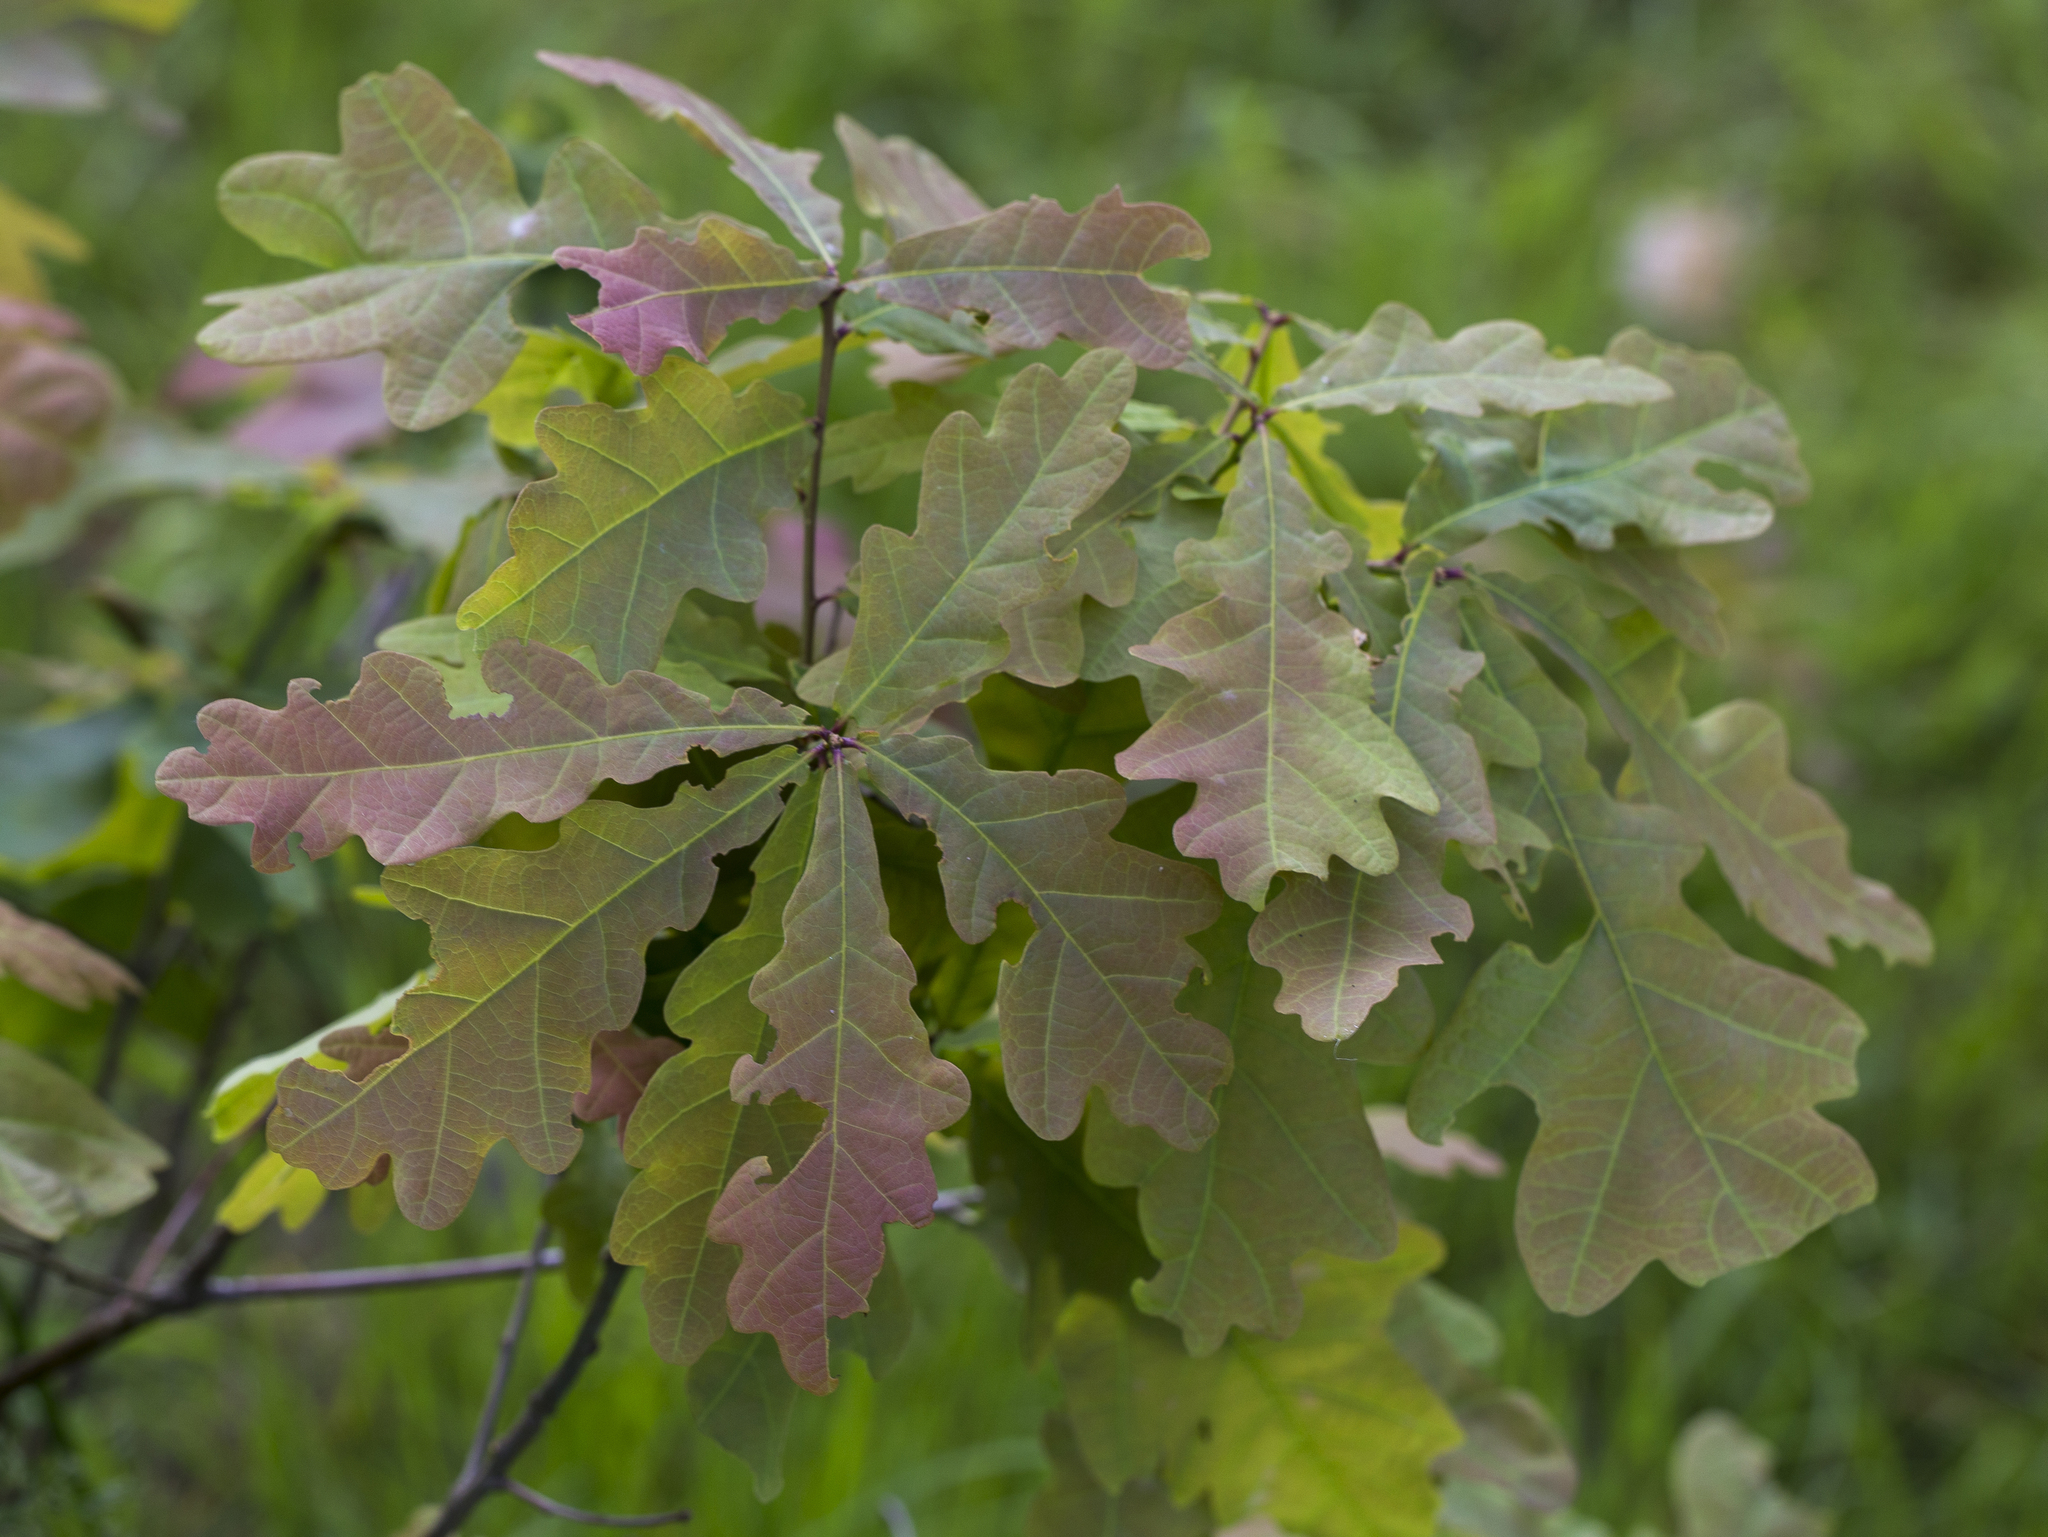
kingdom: Plantae
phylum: Tracheophyta
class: Magnoliopsida
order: Fagales
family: Fagaceae
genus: Quercus
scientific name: Quercus robur
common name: Pedunculate oak
